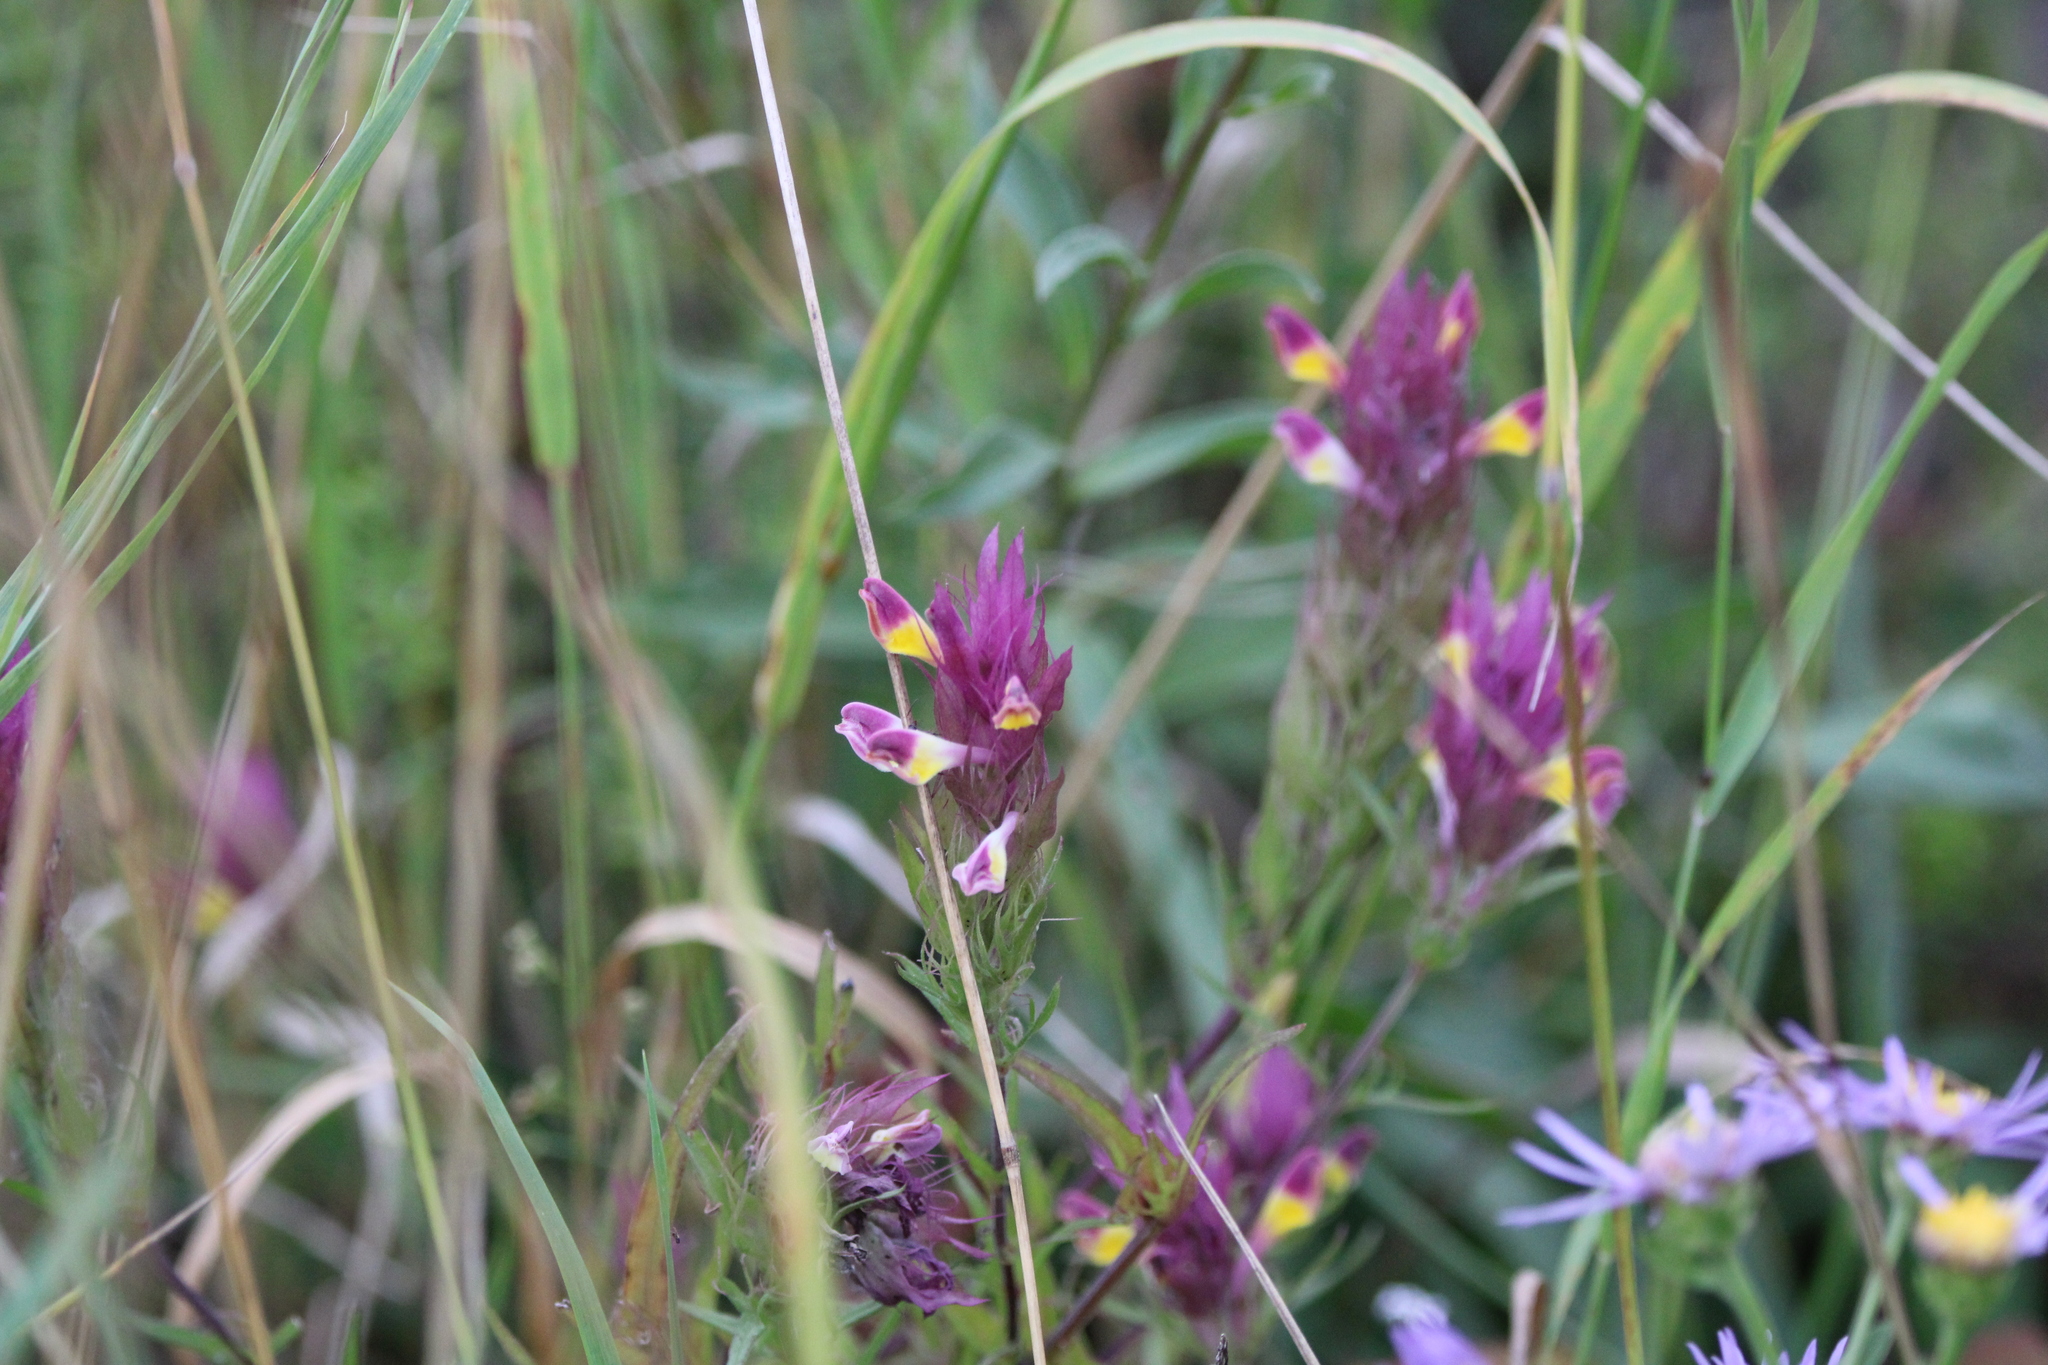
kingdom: Plantae
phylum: Tracheophyta
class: Magnoliopsida
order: Lamiales
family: Orobanchaceae
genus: Melampyrum
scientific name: Melampyrum arvense
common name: Field cow-wheat
